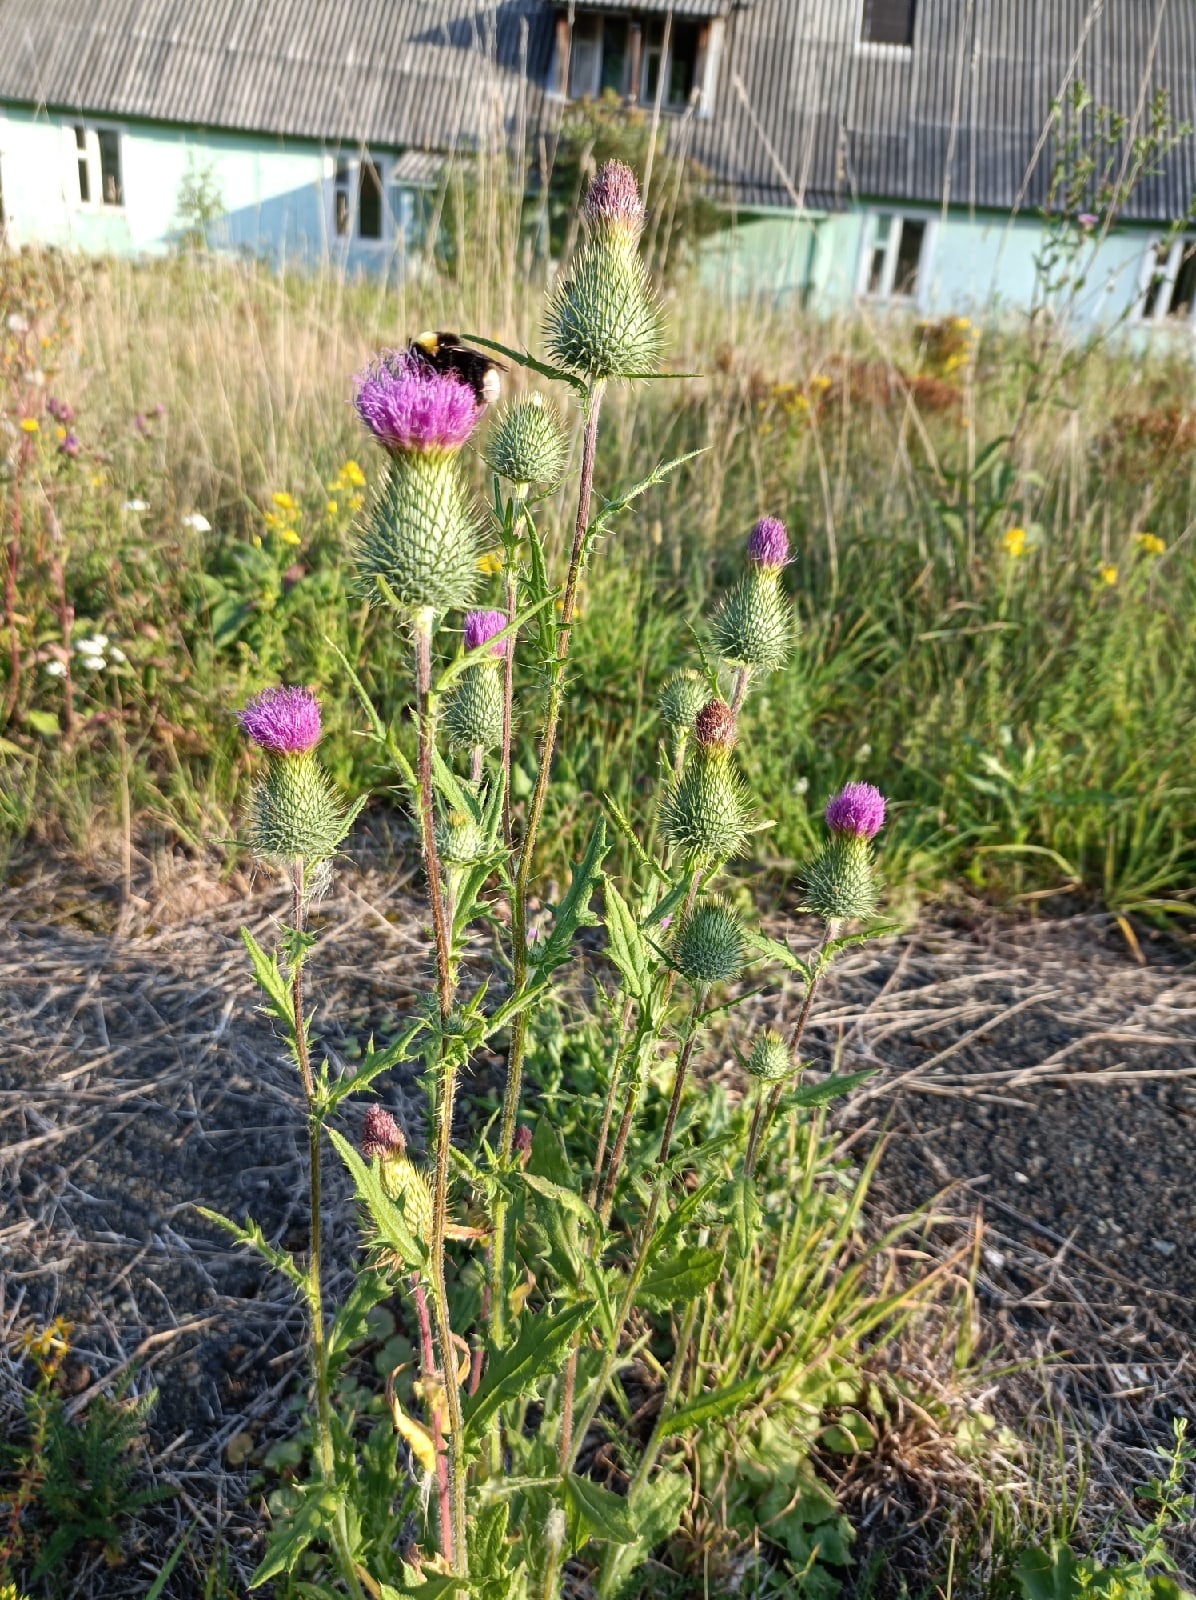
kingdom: Plantae
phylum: Tracheophyta
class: Magnoliopsida
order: Asterales
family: Asteraceae
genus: Cirsium
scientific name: Cirsium vulgare
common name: Bull thistle
